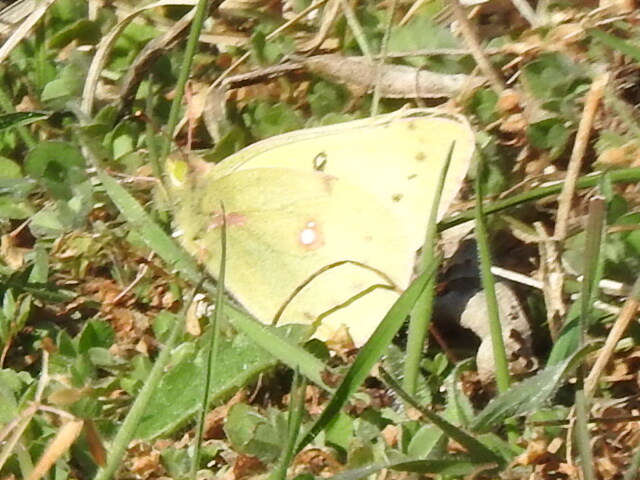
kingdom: Animalia
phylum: Arthropoda
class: Insecta
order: Lepidoptera
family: Pieridae
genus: Colias
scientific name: Colias eurytheme
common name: Alfalfa butterfly
